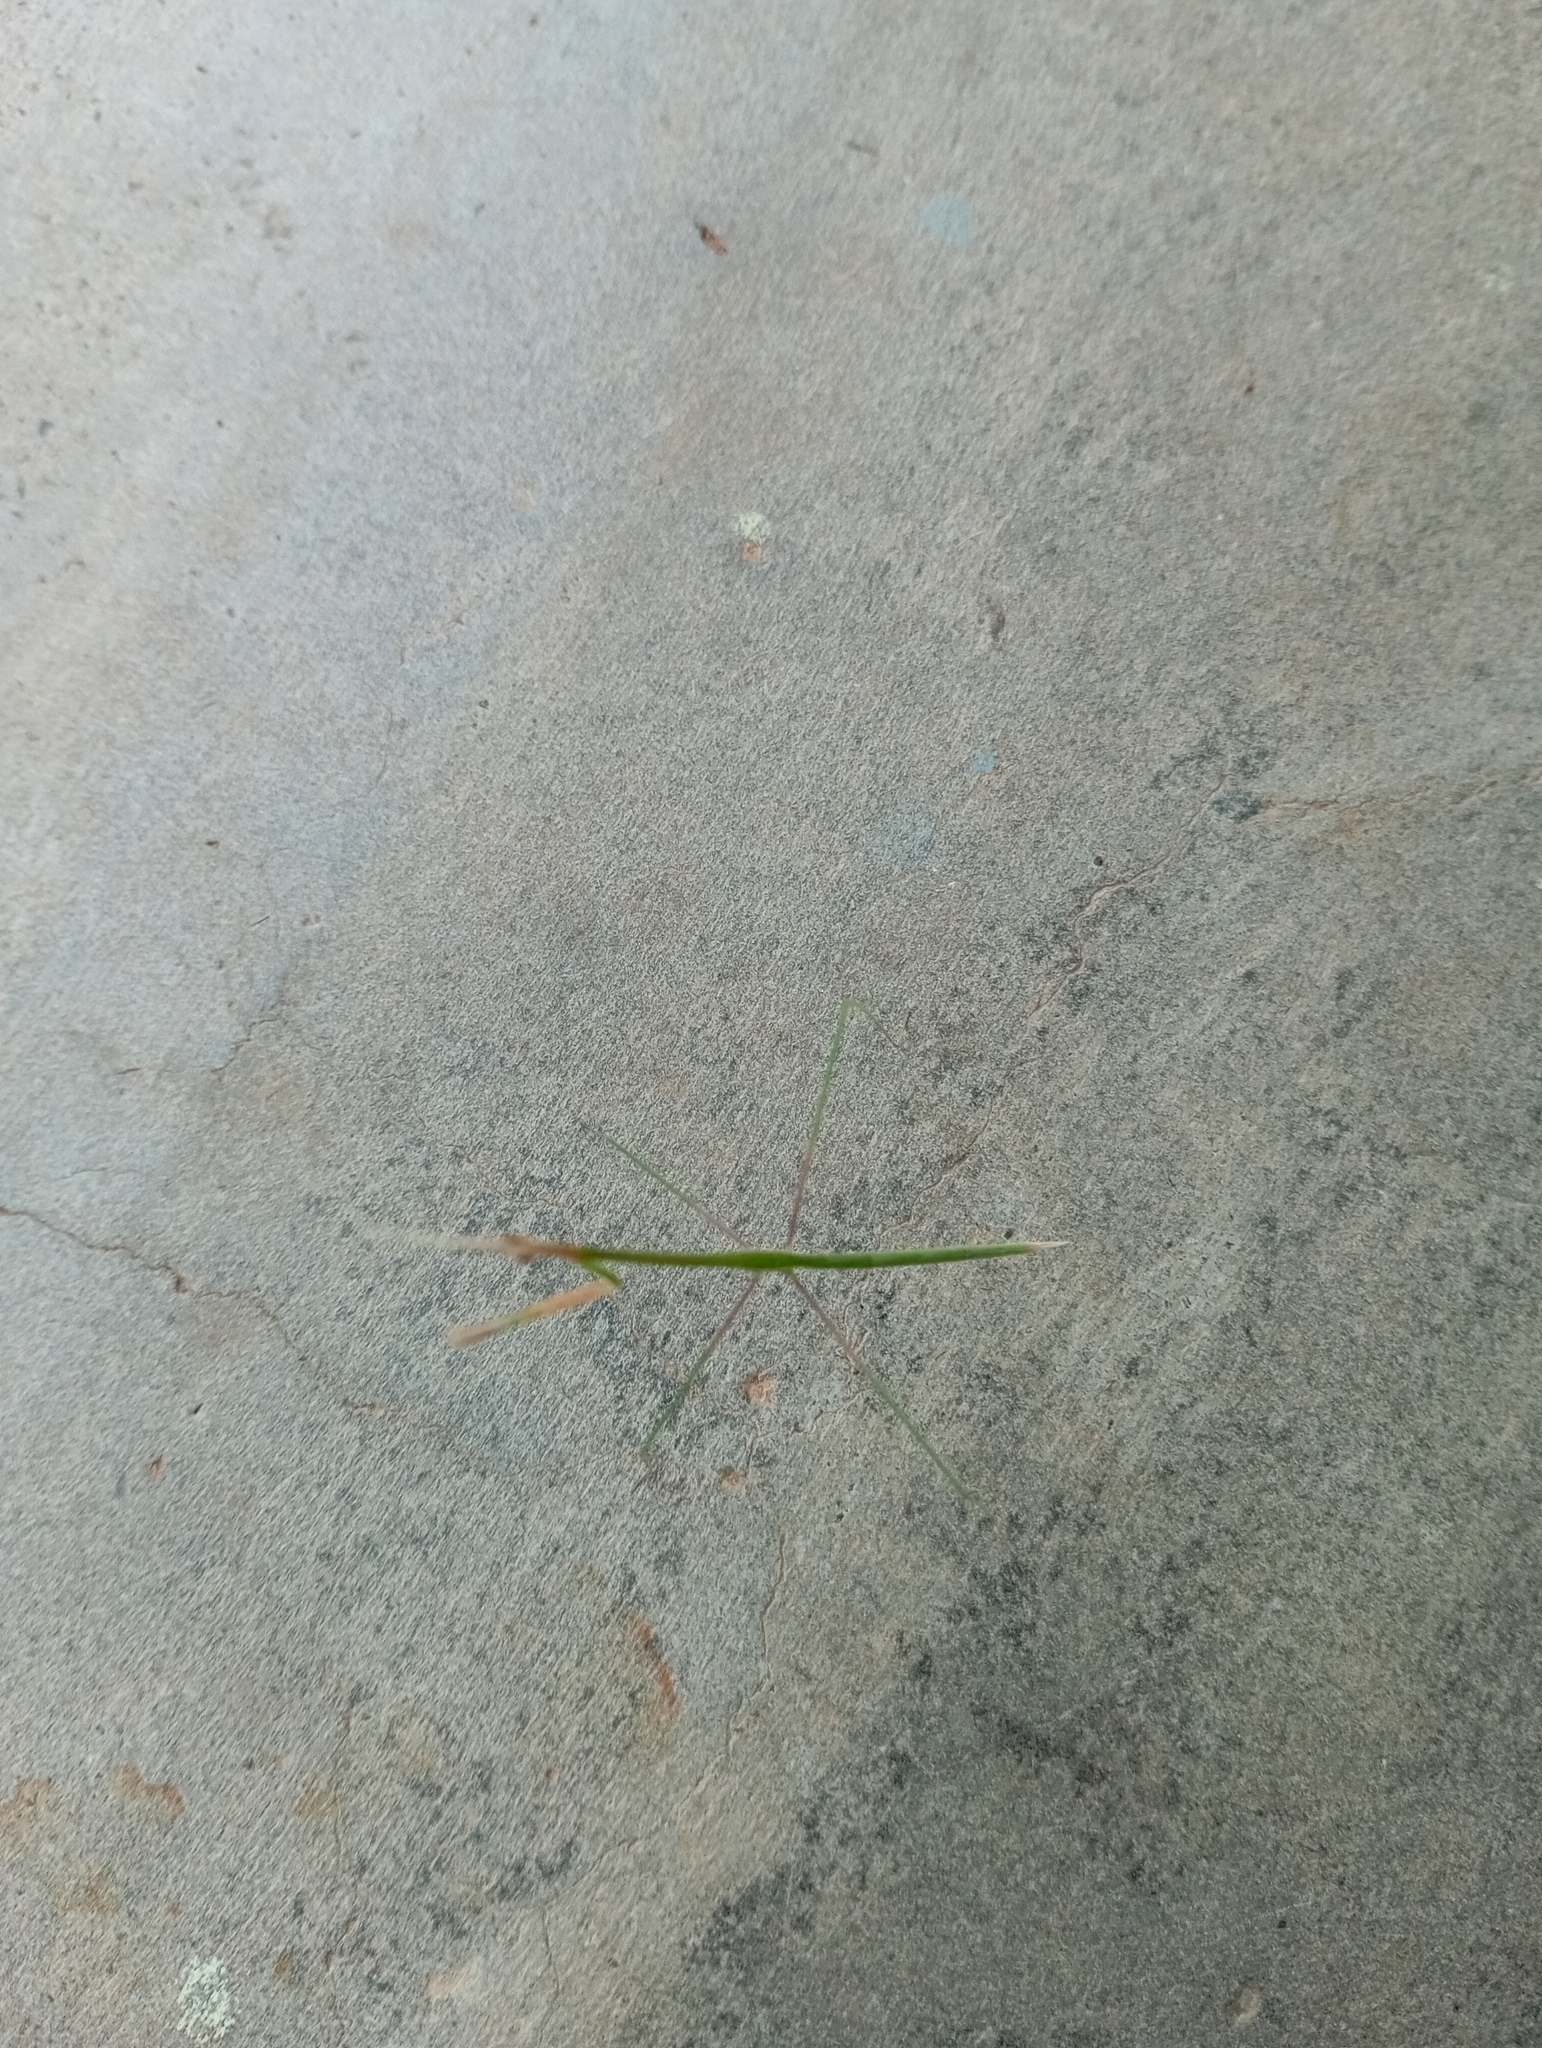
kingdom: Animalia
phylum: Arthropoda
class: Insecta
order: Mantodea
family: Eremiaphilidae
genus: Schizocephala
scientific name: Schizocephala bicornis
